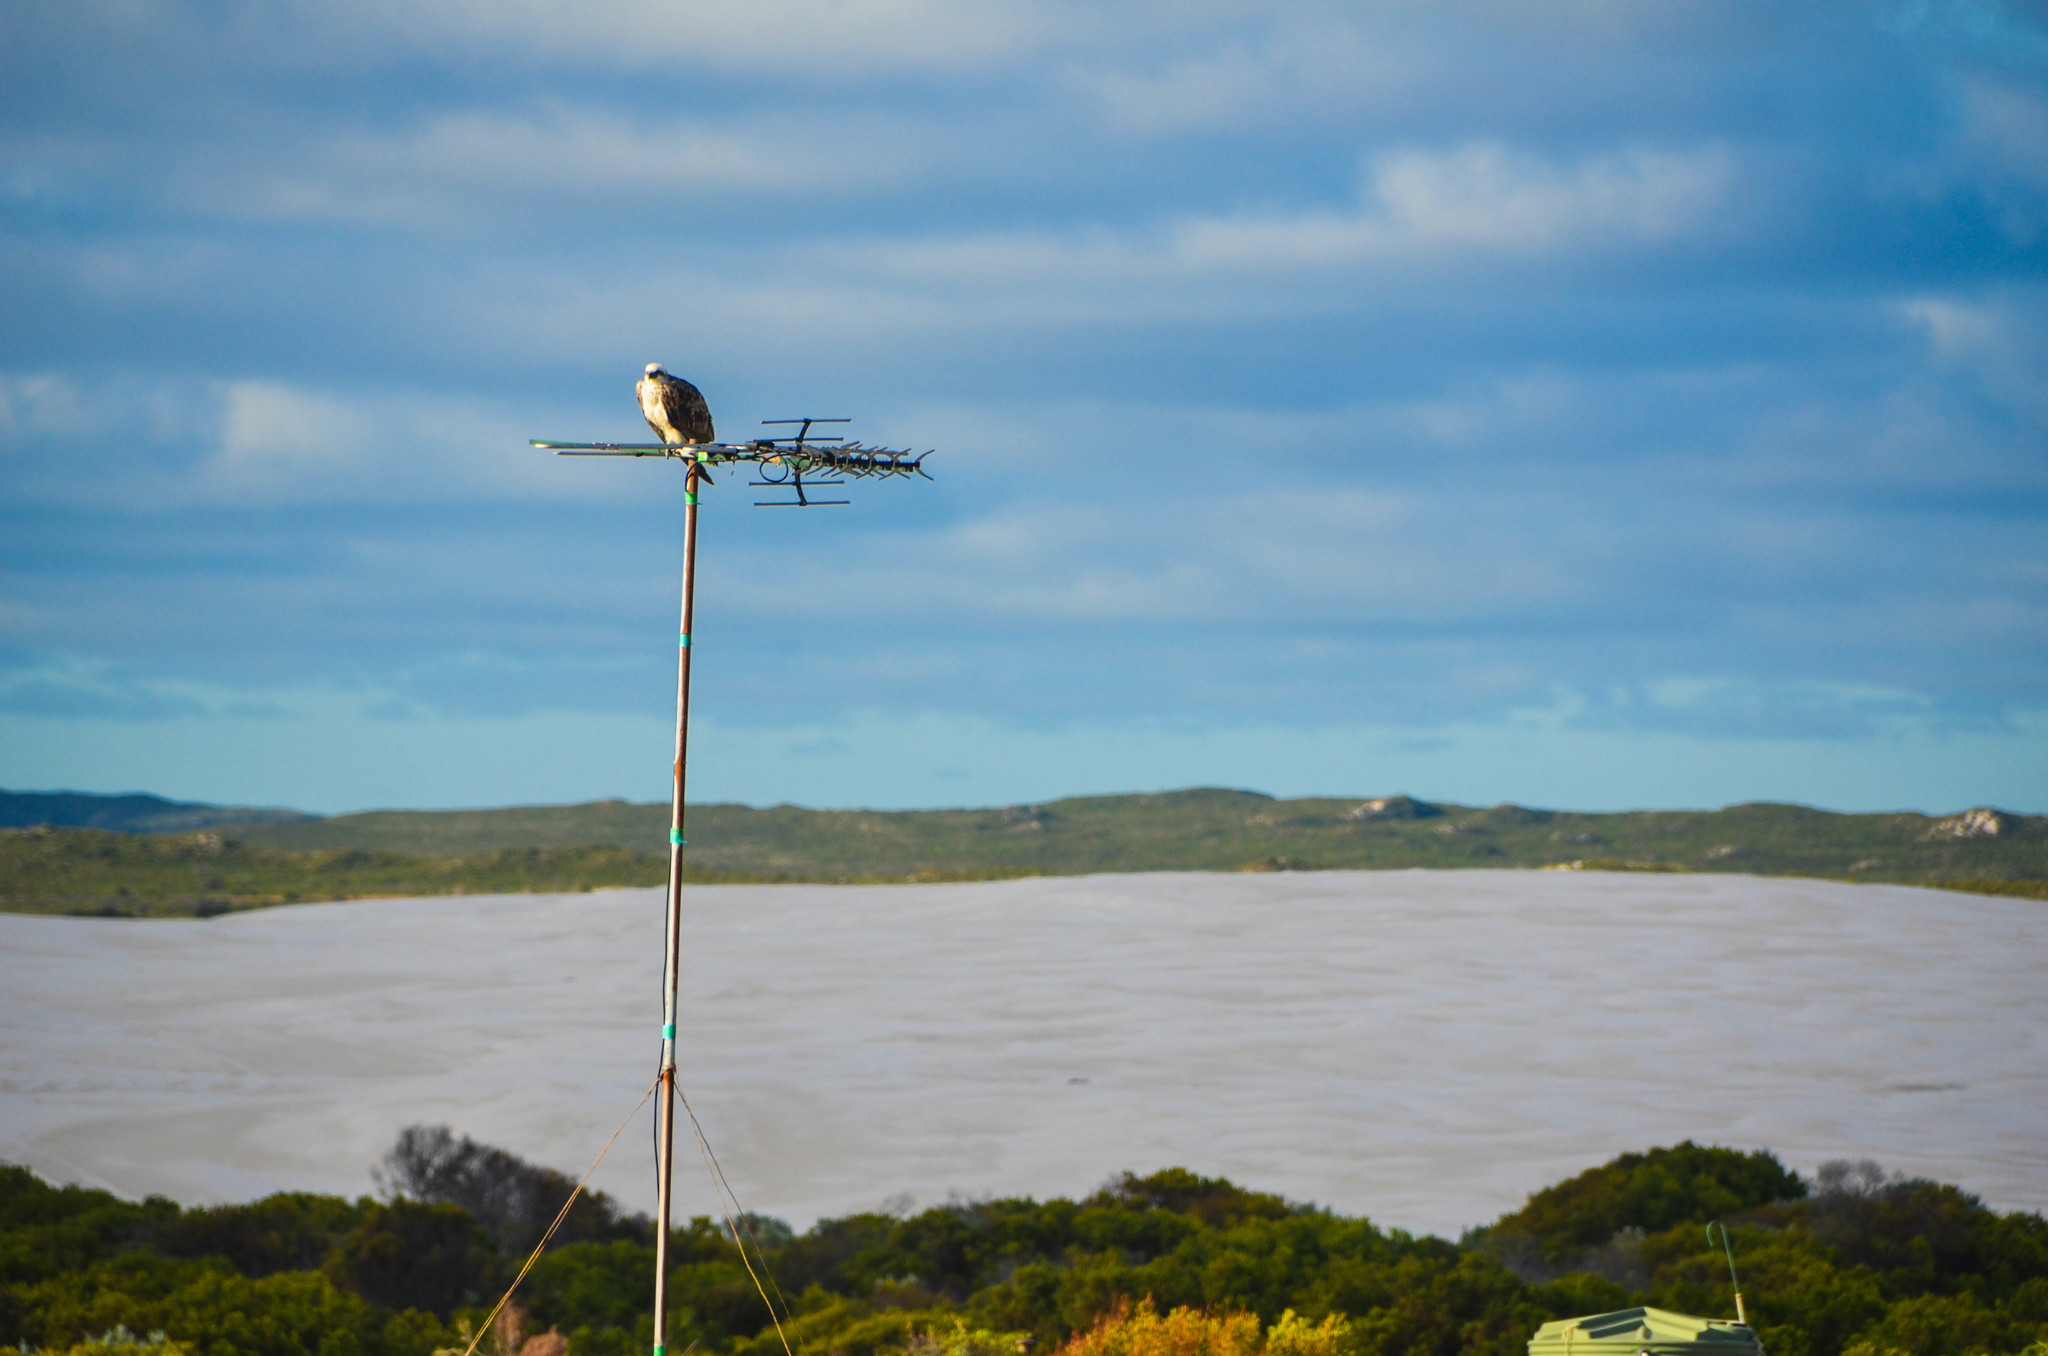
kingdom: Animalia
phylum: Chordata
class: Aves
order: Accipitriformes
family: Pandionidae
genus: Pandion
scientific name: Pandion haliaetus
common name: Osprey
